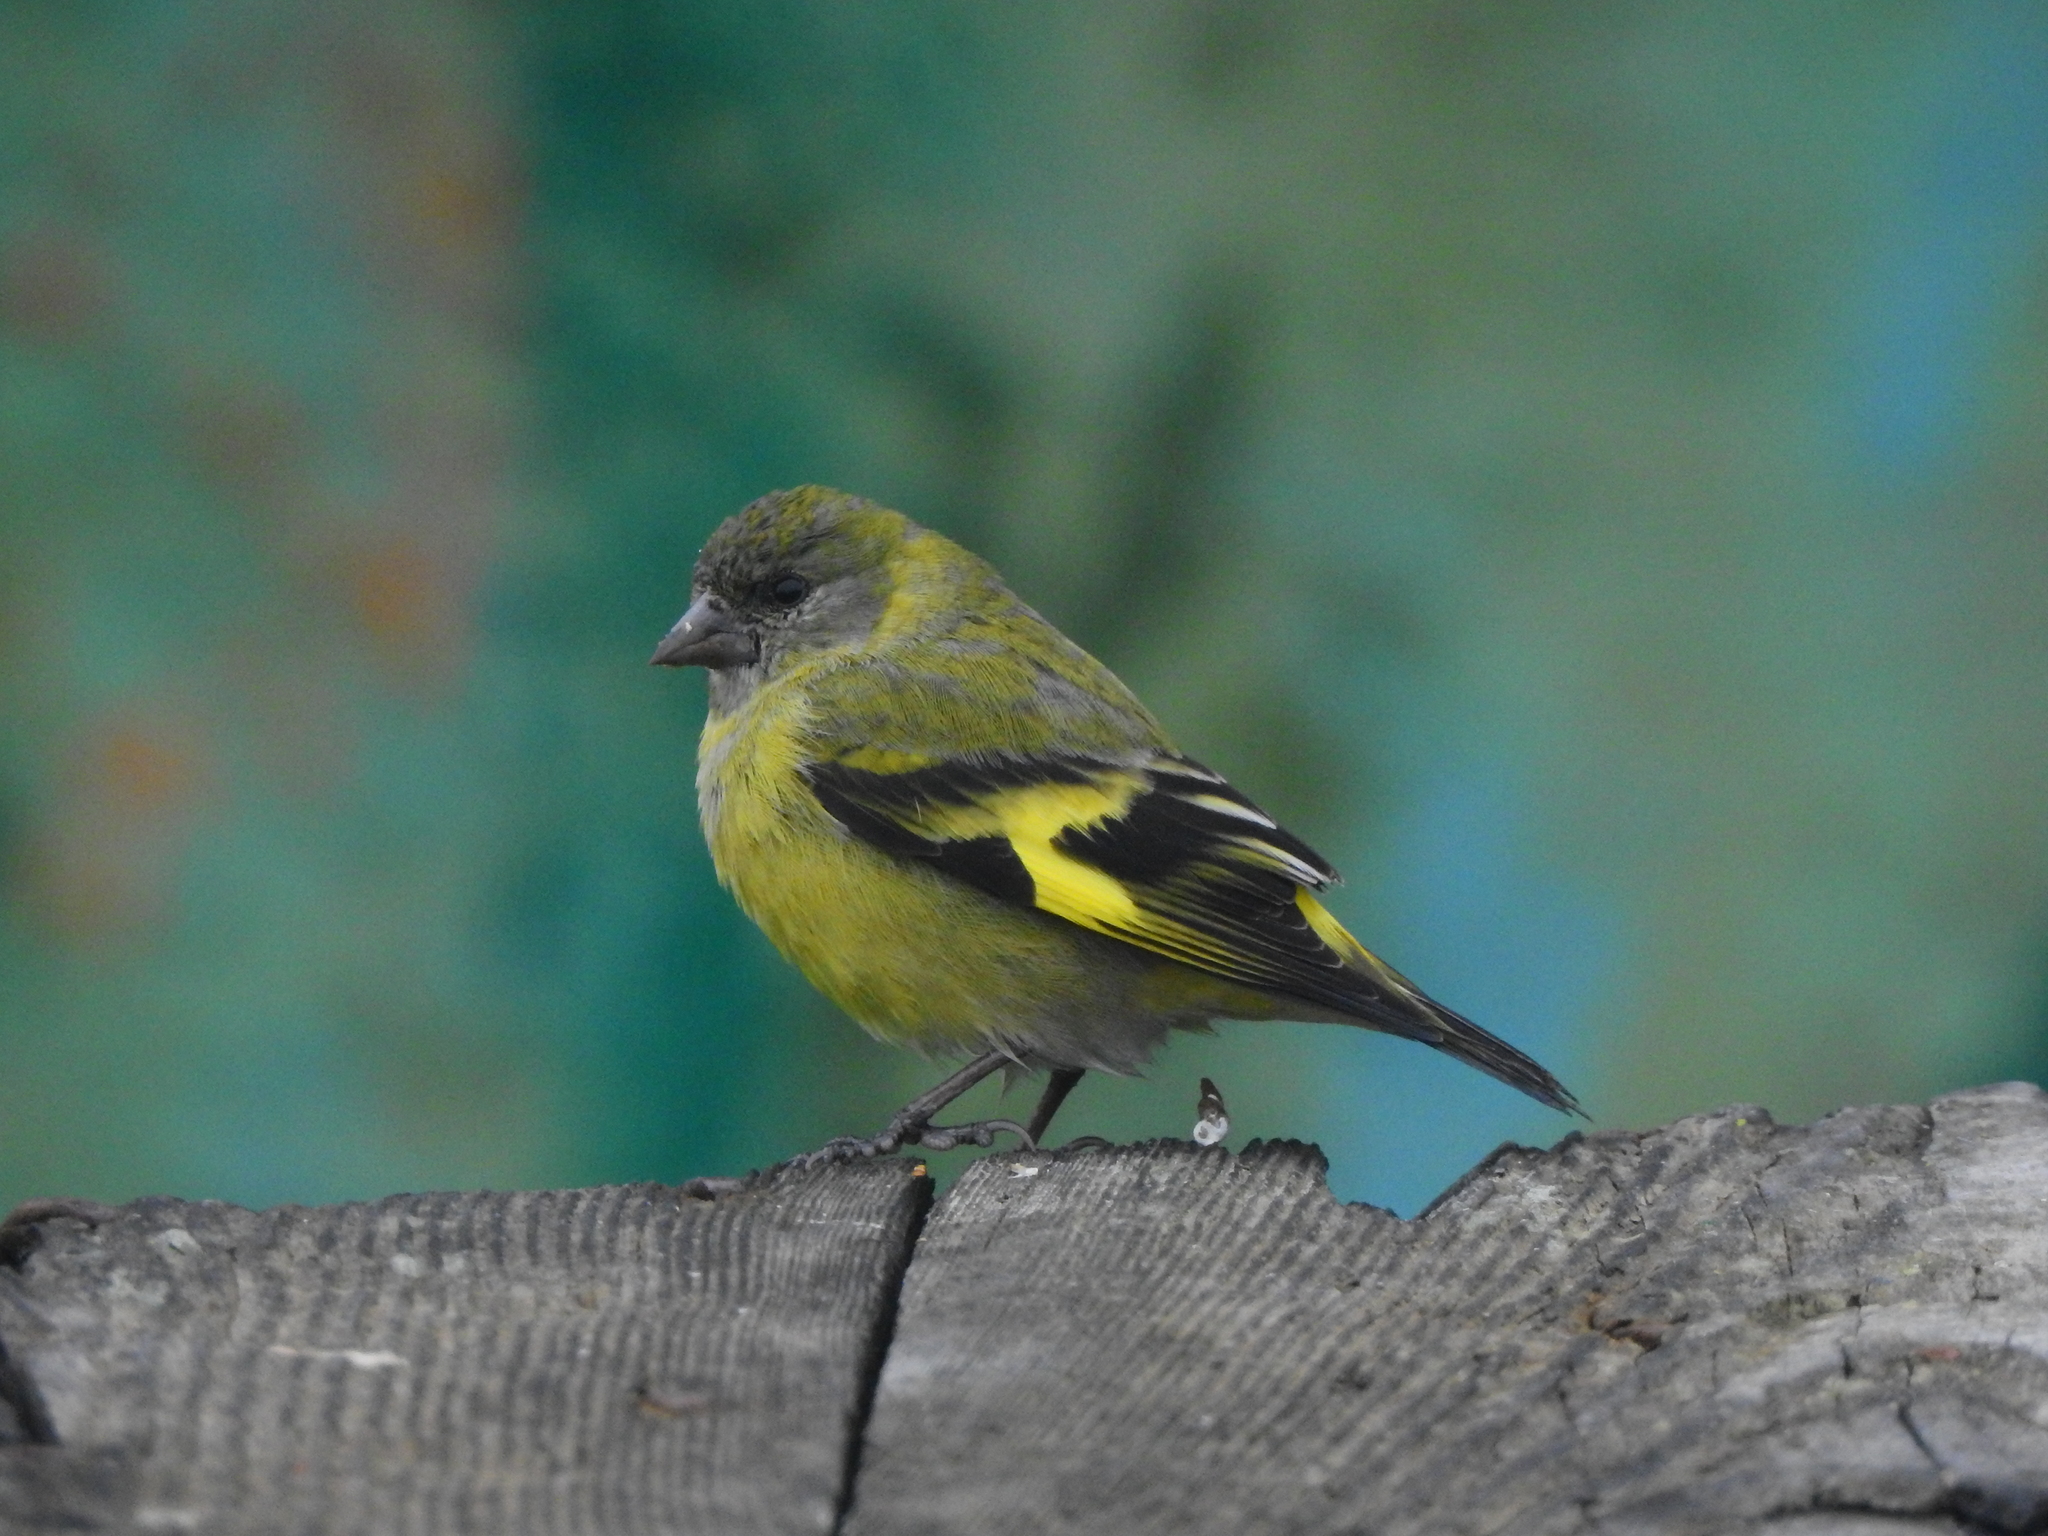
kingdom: Animalia
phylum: Chordata
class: Aves
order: Passeriformes
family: Fringillidae
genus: Spinus
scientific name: Spinus magellanicus
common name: Hooded siskin
